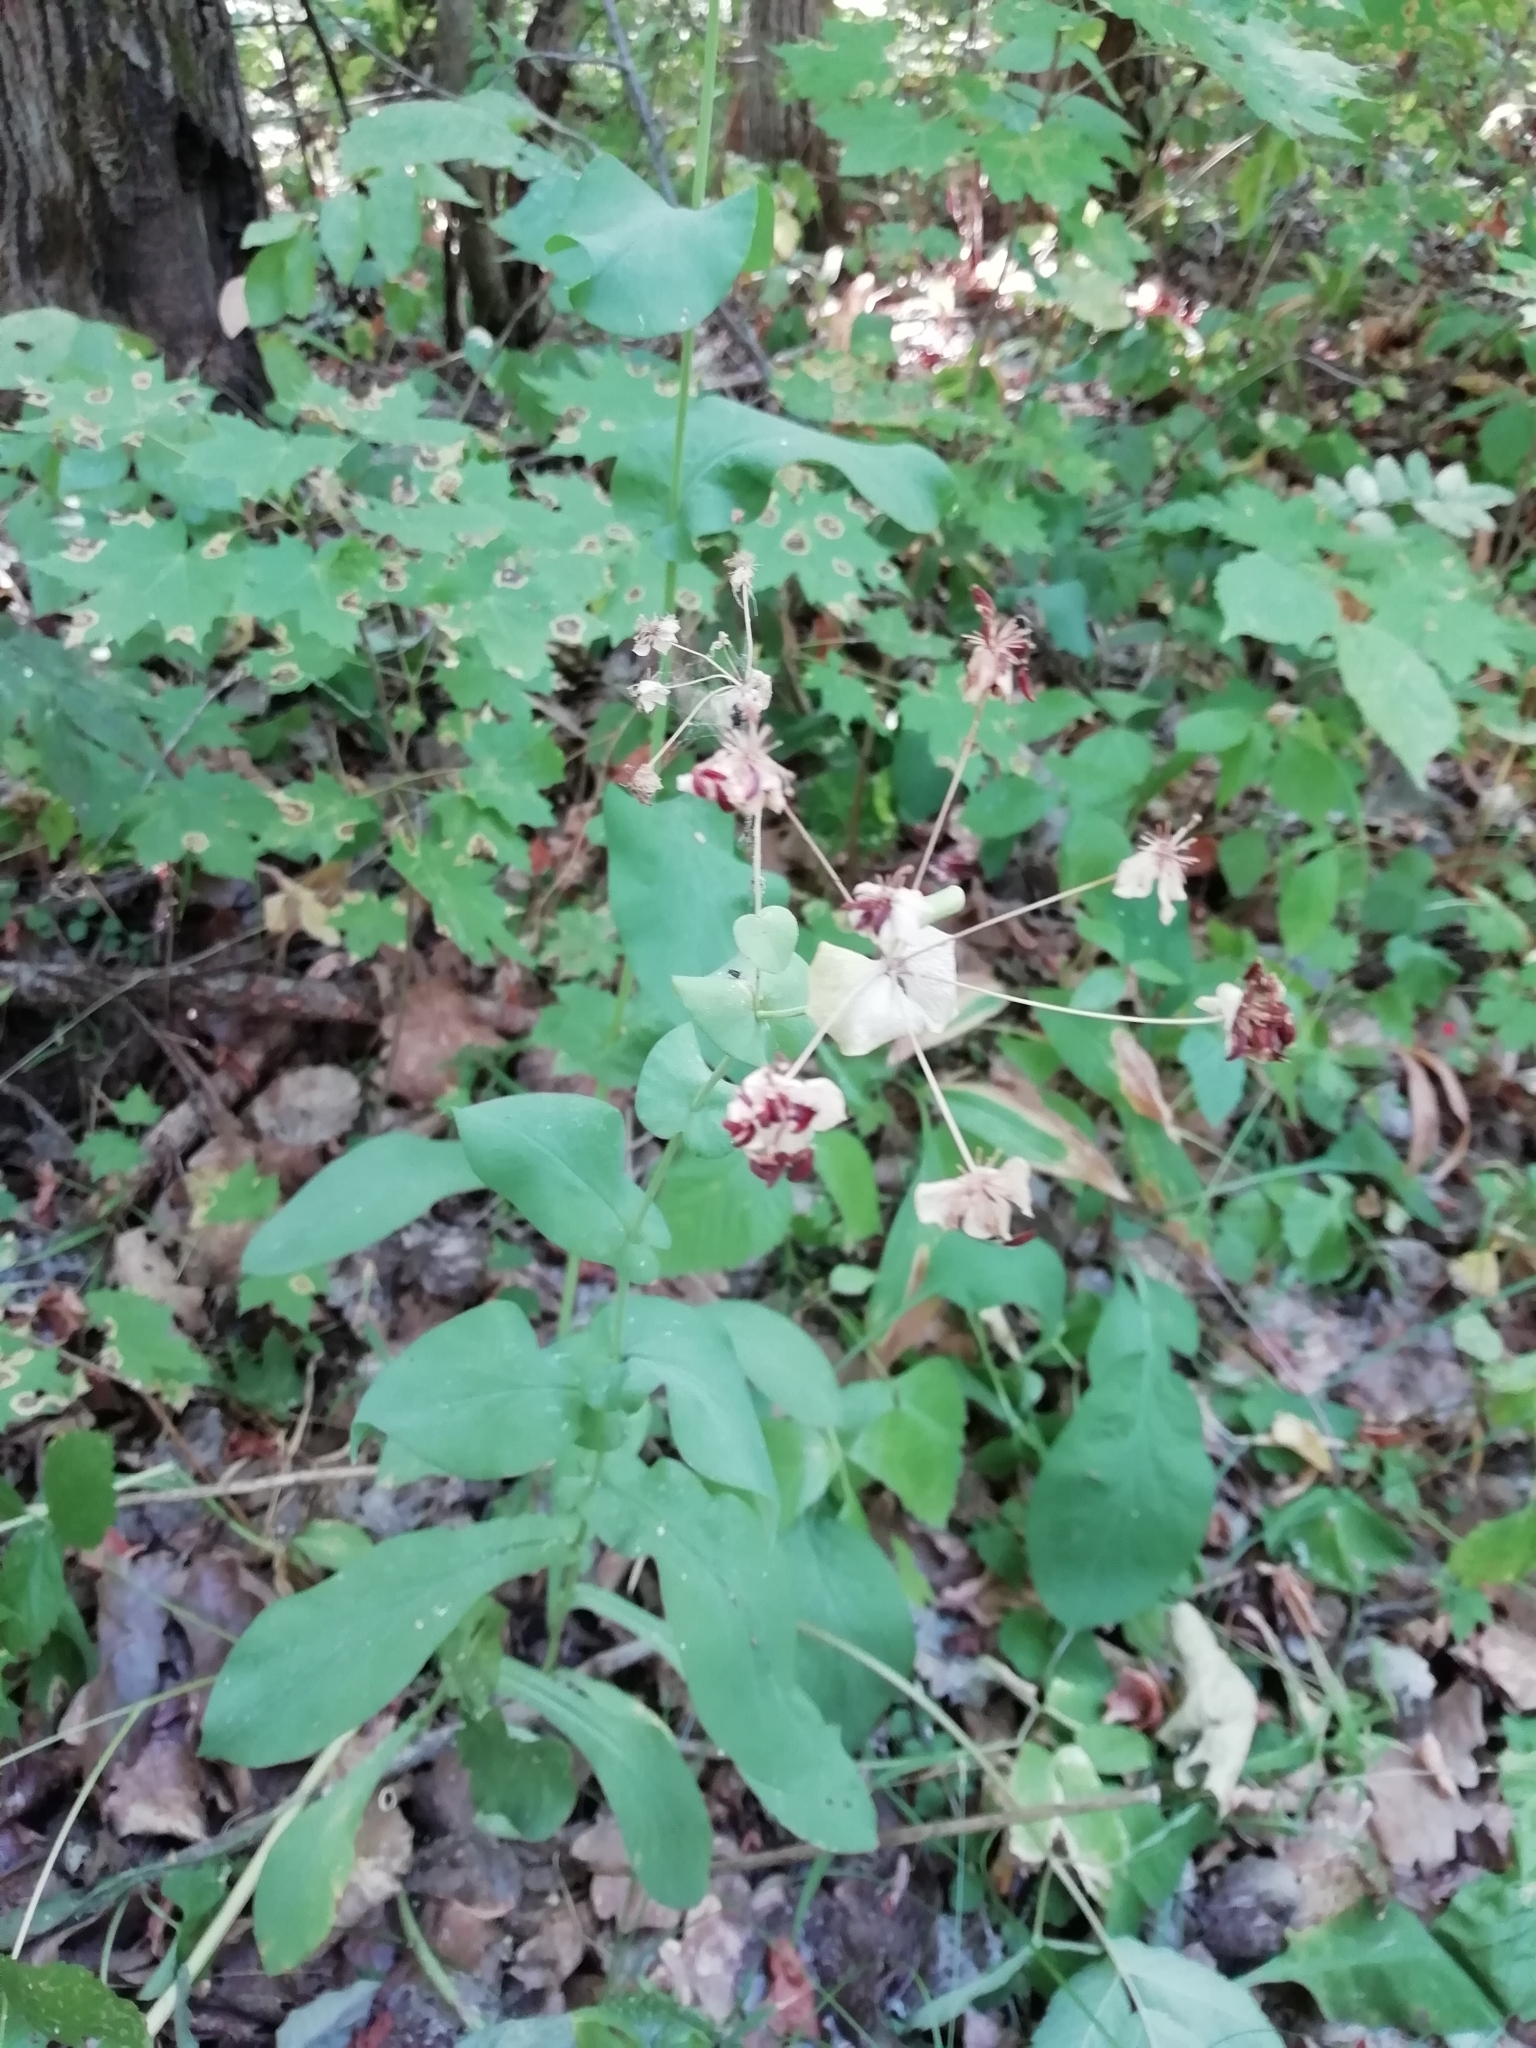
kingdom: Plantae
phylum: Tracheophyta
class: Magnoliopsida
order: Apiales
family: Apiaceae
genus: Bupleurum
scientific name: Bupleurum aureum
